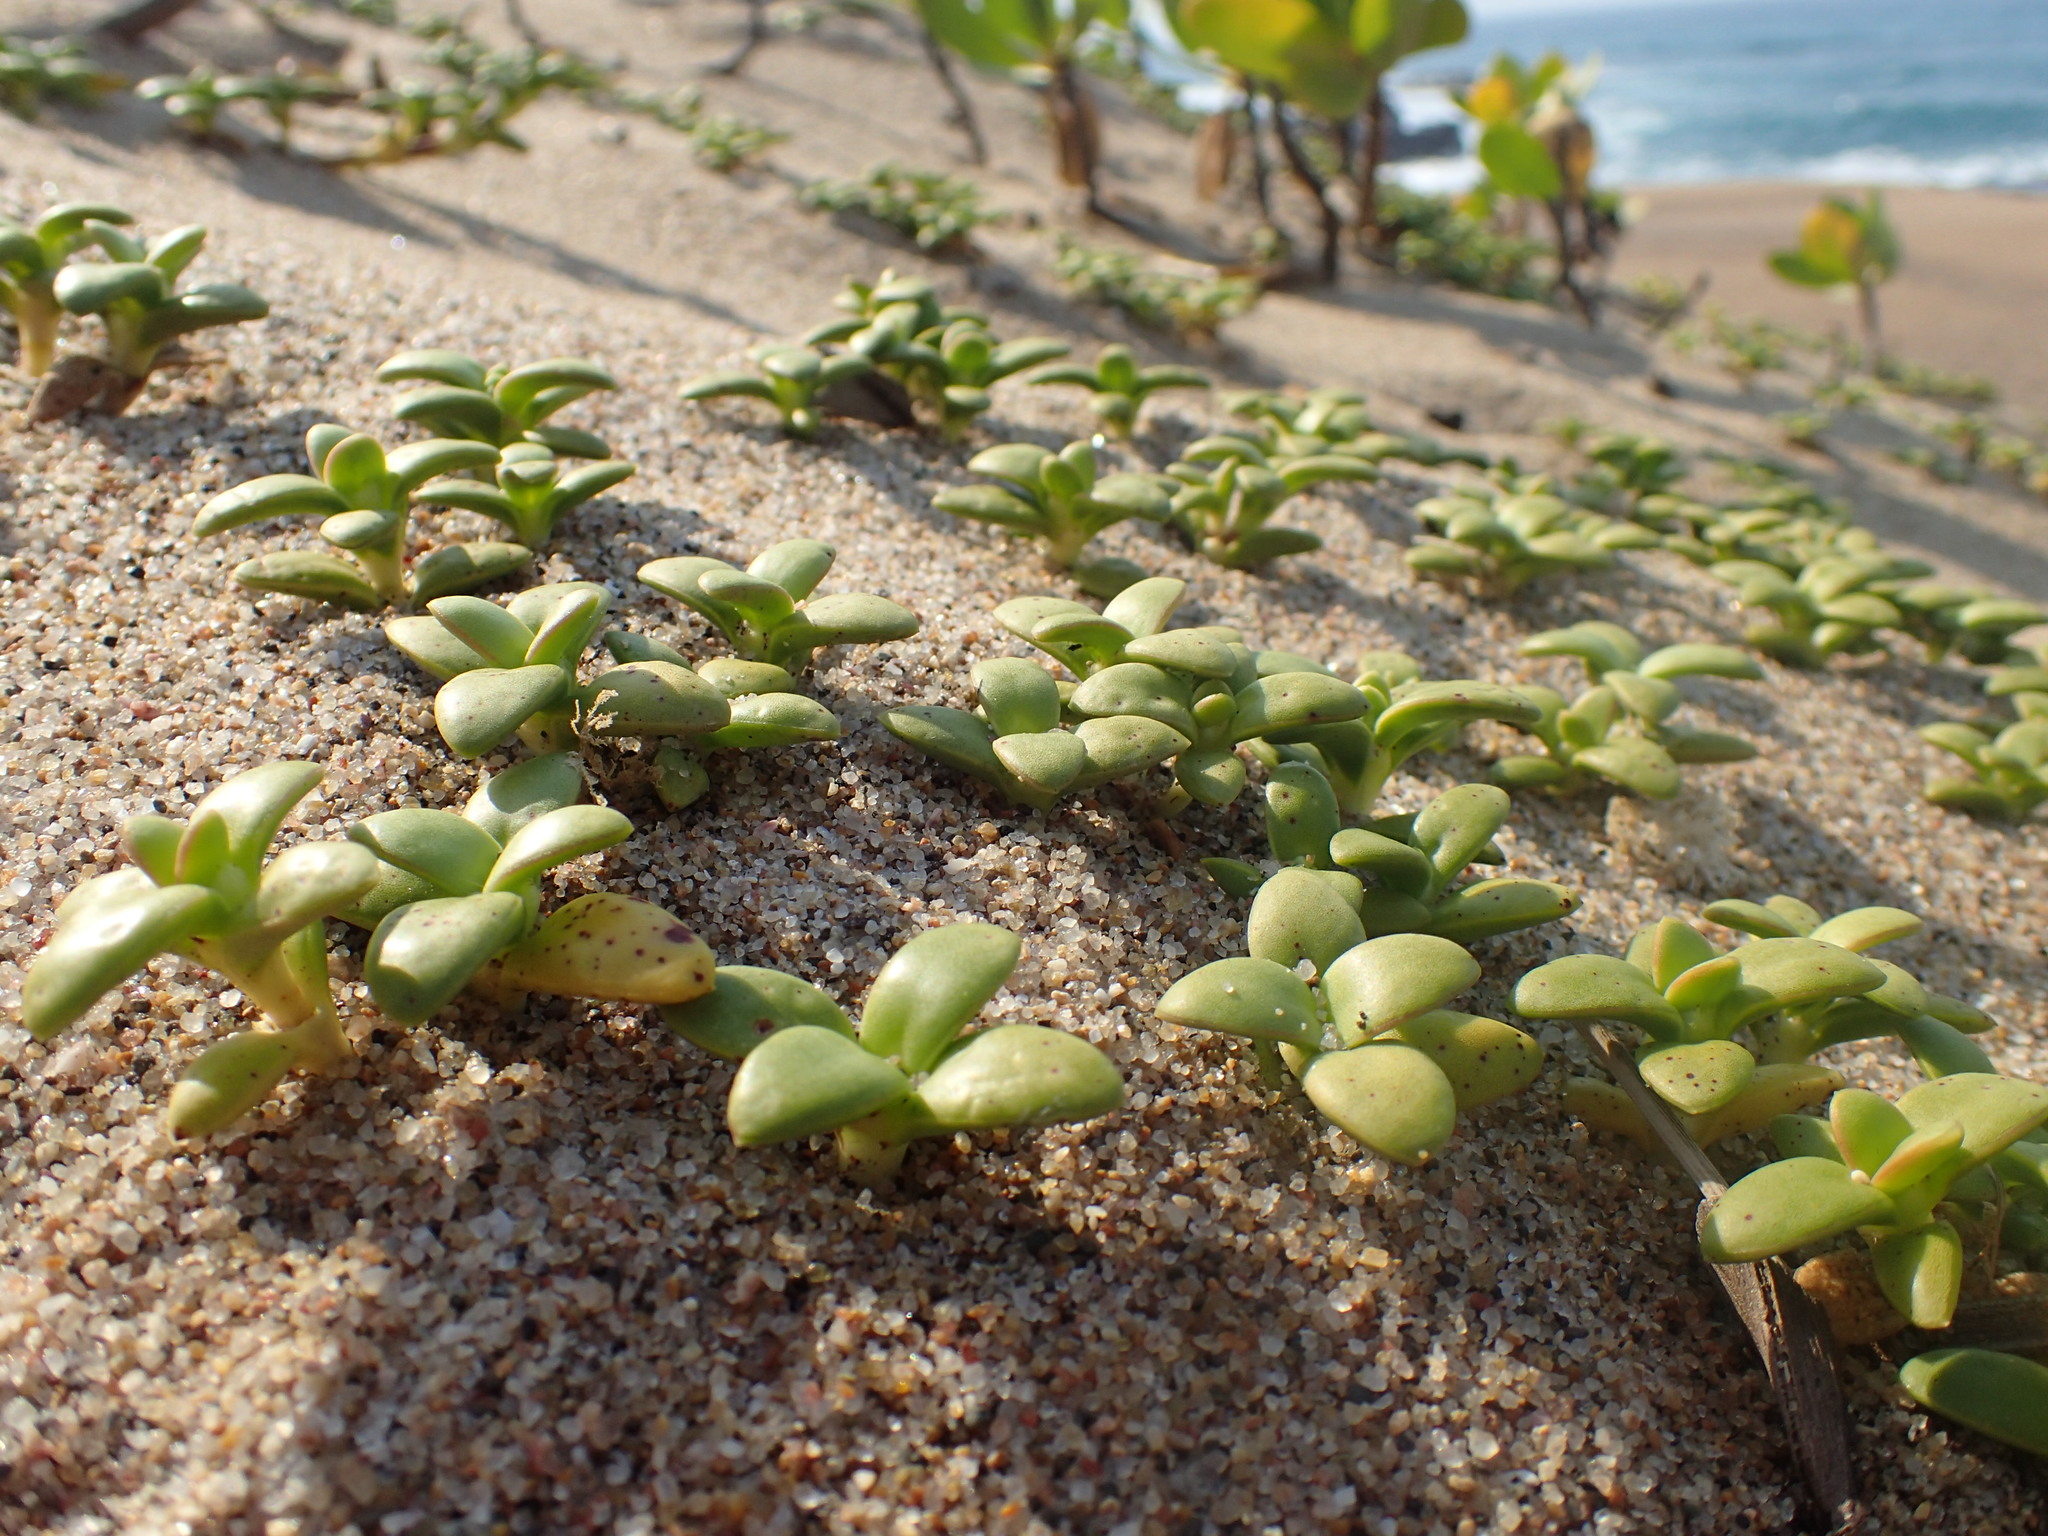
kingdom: Plantae
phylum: Tracheophyta
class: Magnoliopsida
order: Gentianales
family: Rubiaceae
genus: Phylohydrax
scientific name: Phylohydrax carnosa
